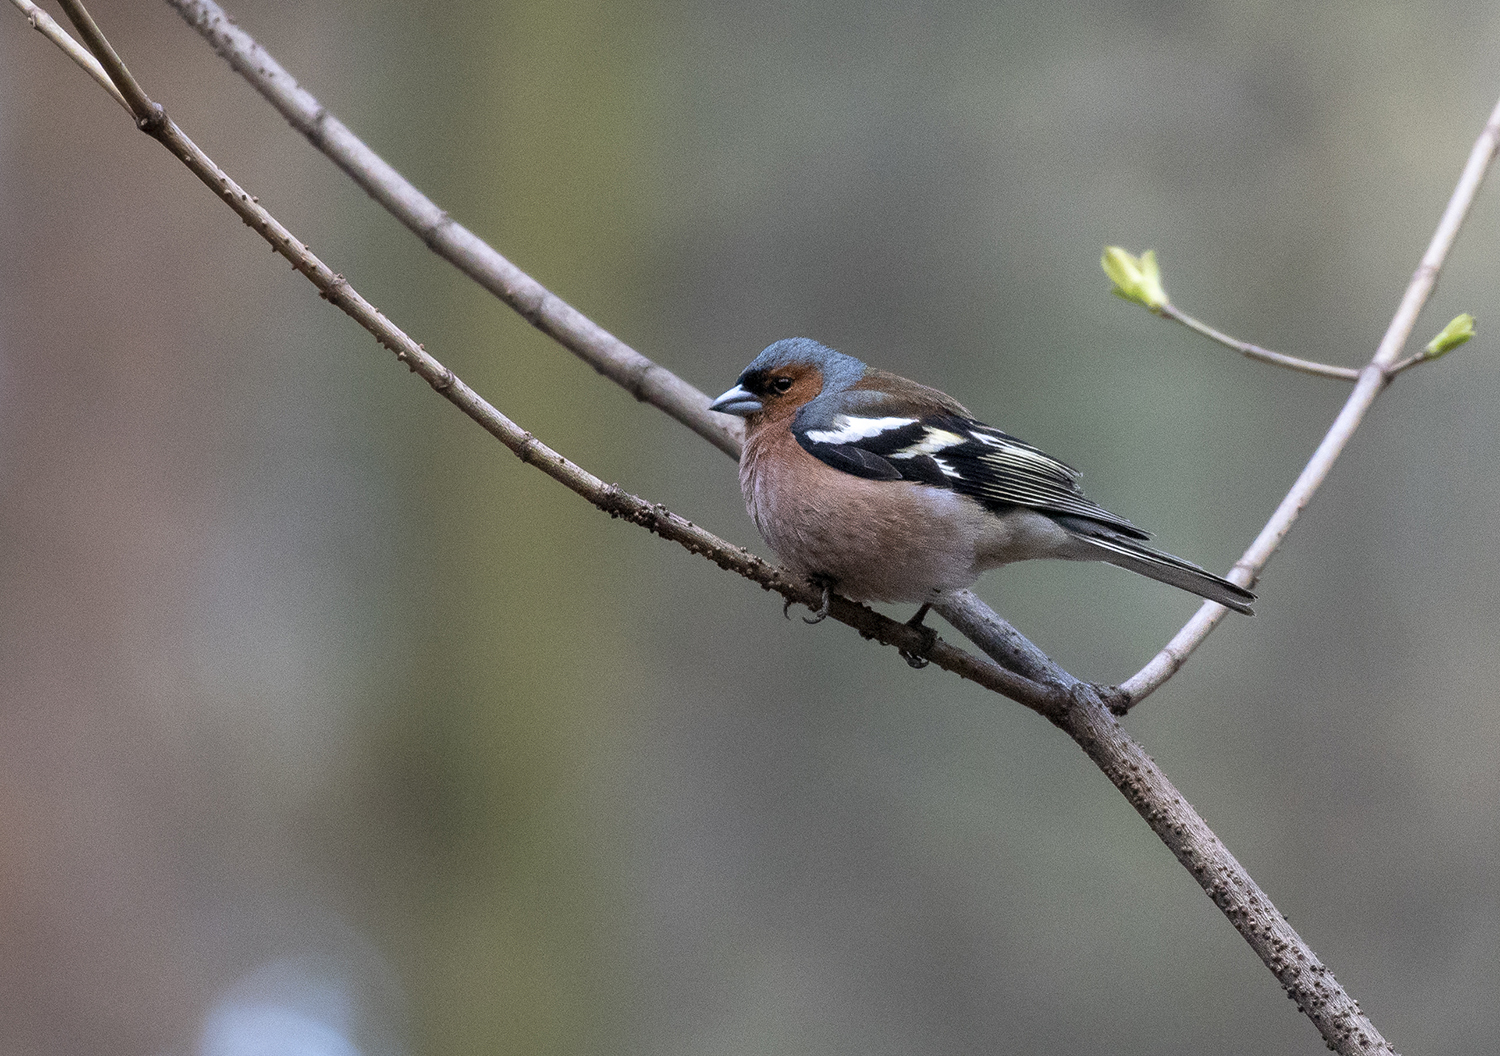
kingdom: Animalia
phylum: Chordata
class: Aves
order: Passeriformes
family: Fringillidae
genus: Fringilla
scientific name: Fringilla coelebs
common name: Common chaffinch
